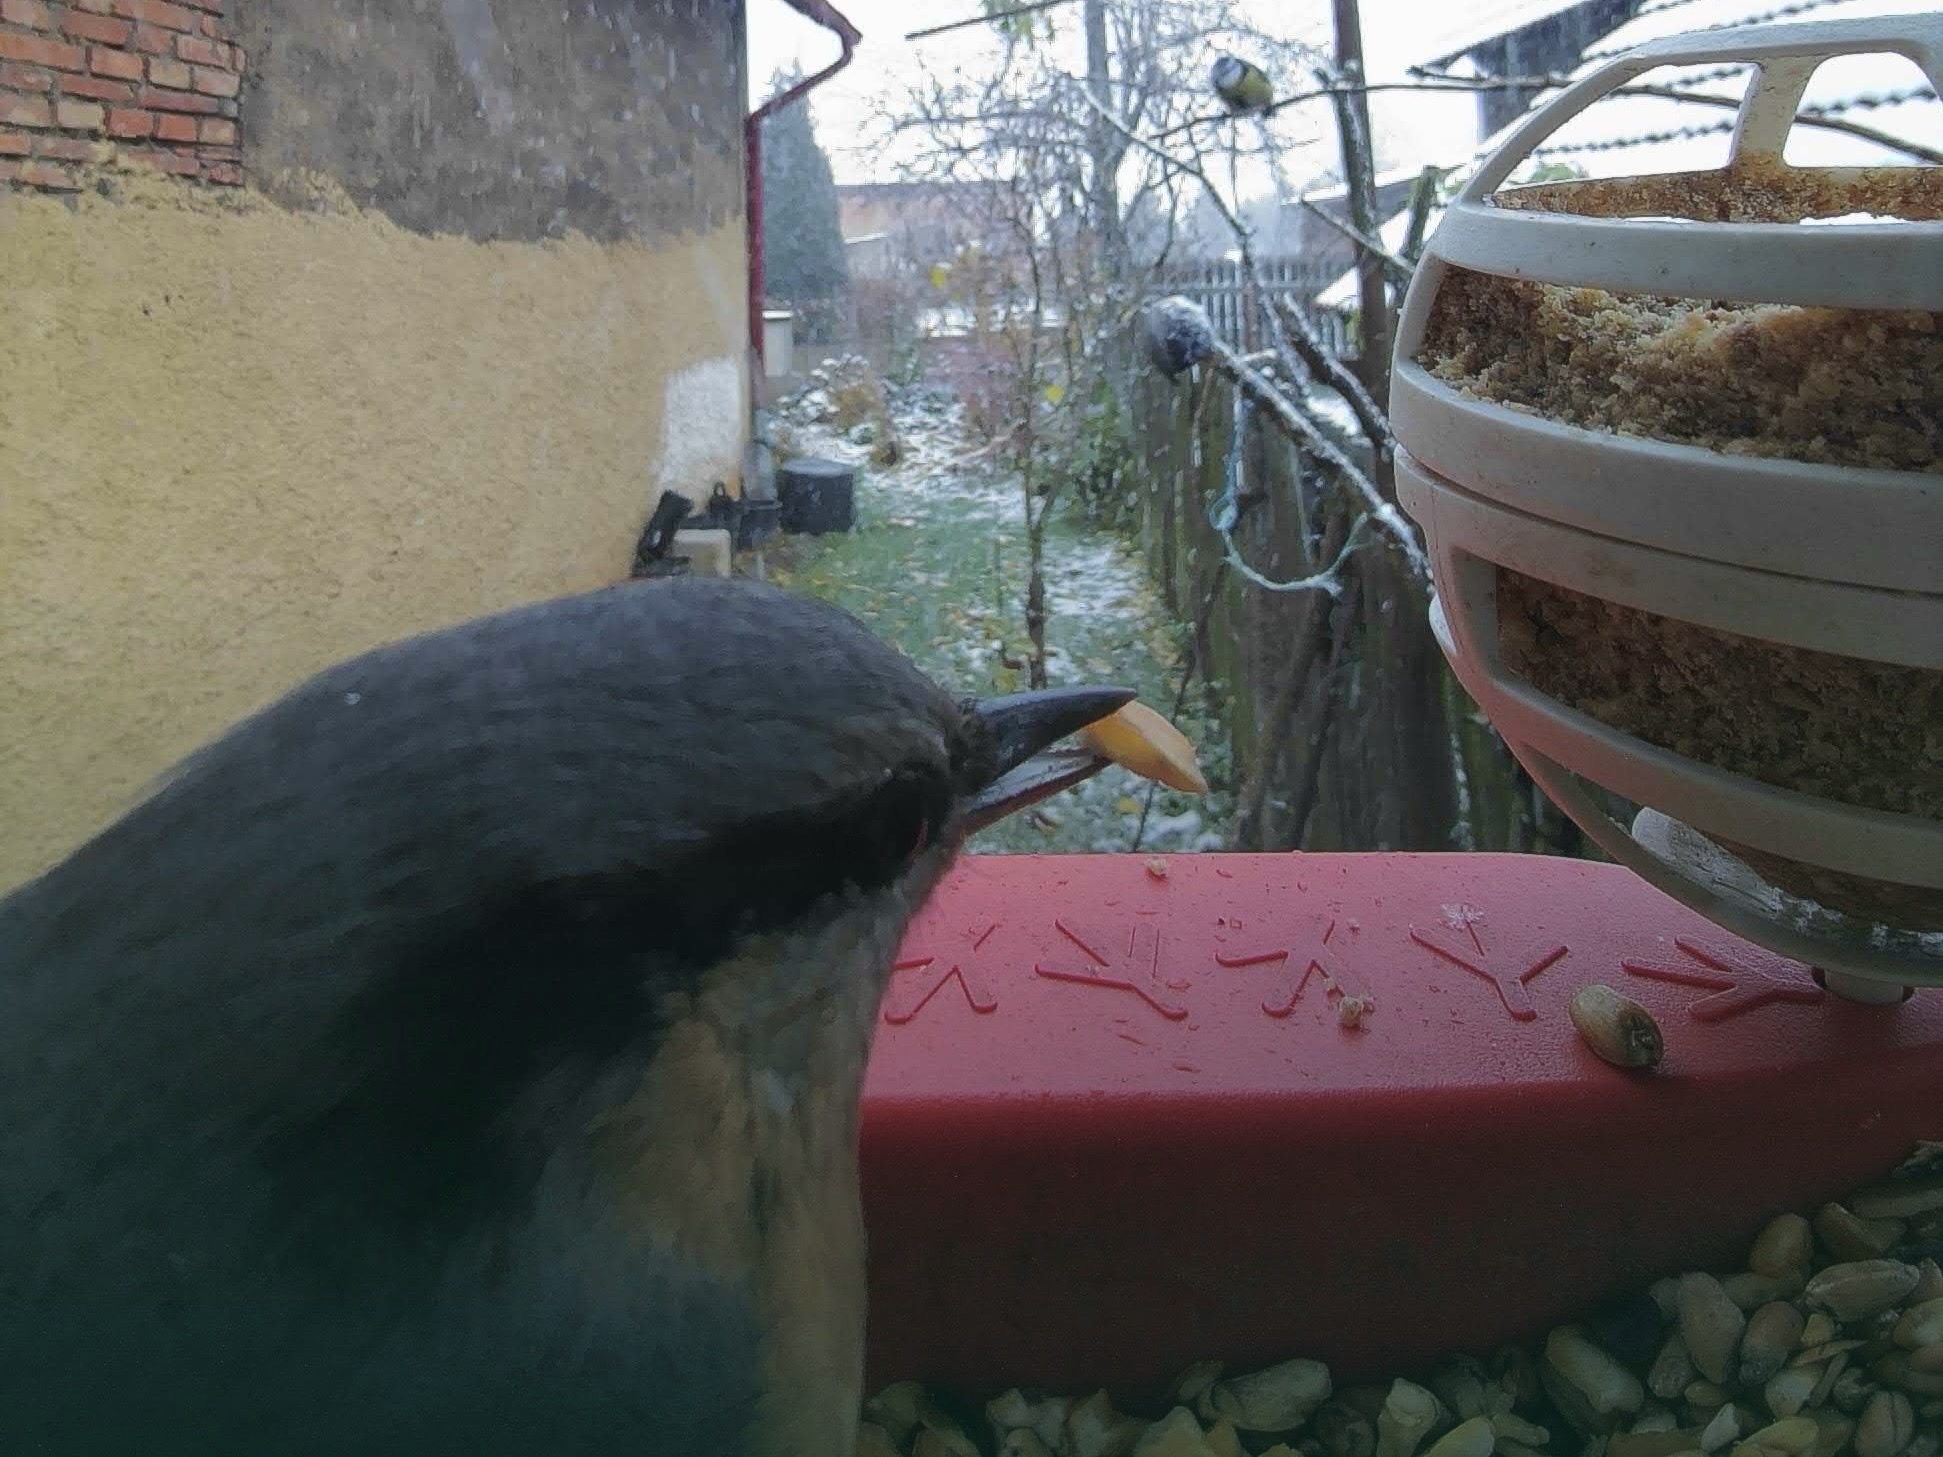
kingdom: Animalia
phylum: Chordata
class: Aves
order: Passeriformes
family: Sittidae
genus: Sitta
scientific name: Sitta europaea
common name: Eurasian nuthatch
